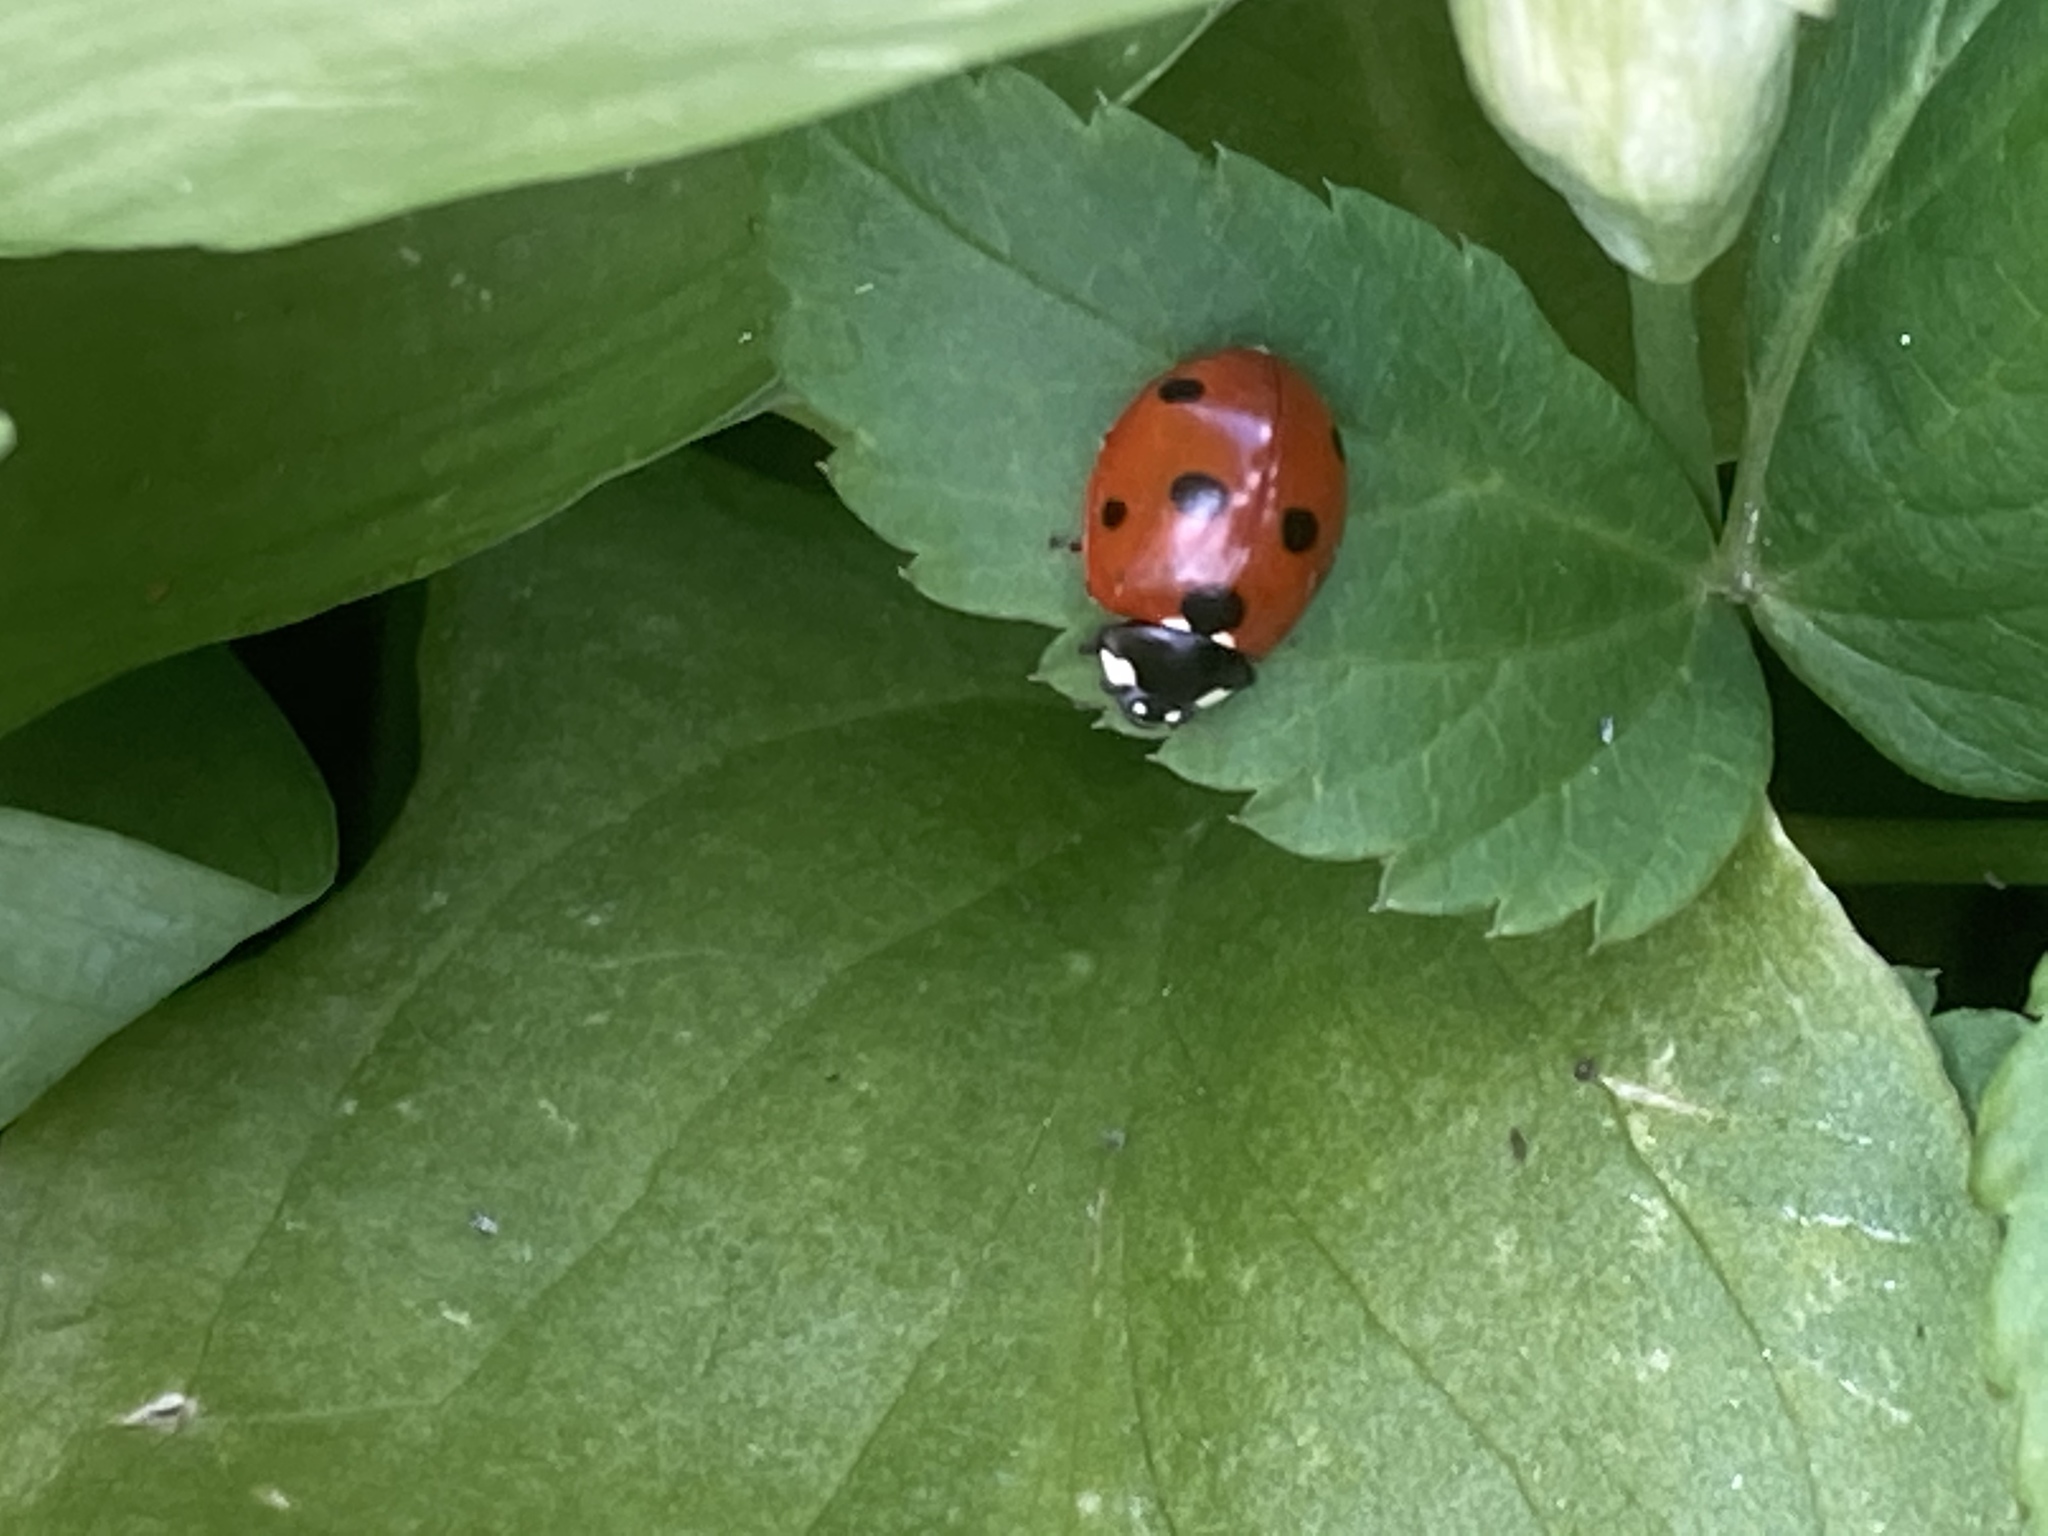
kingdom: Animalia
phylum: Arthropoda
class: Insecta
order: Coleoptera
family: Coccinellidae
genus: Coccinella
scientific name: Coccinella septempunctata
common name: Sevenspotted lady beetle
